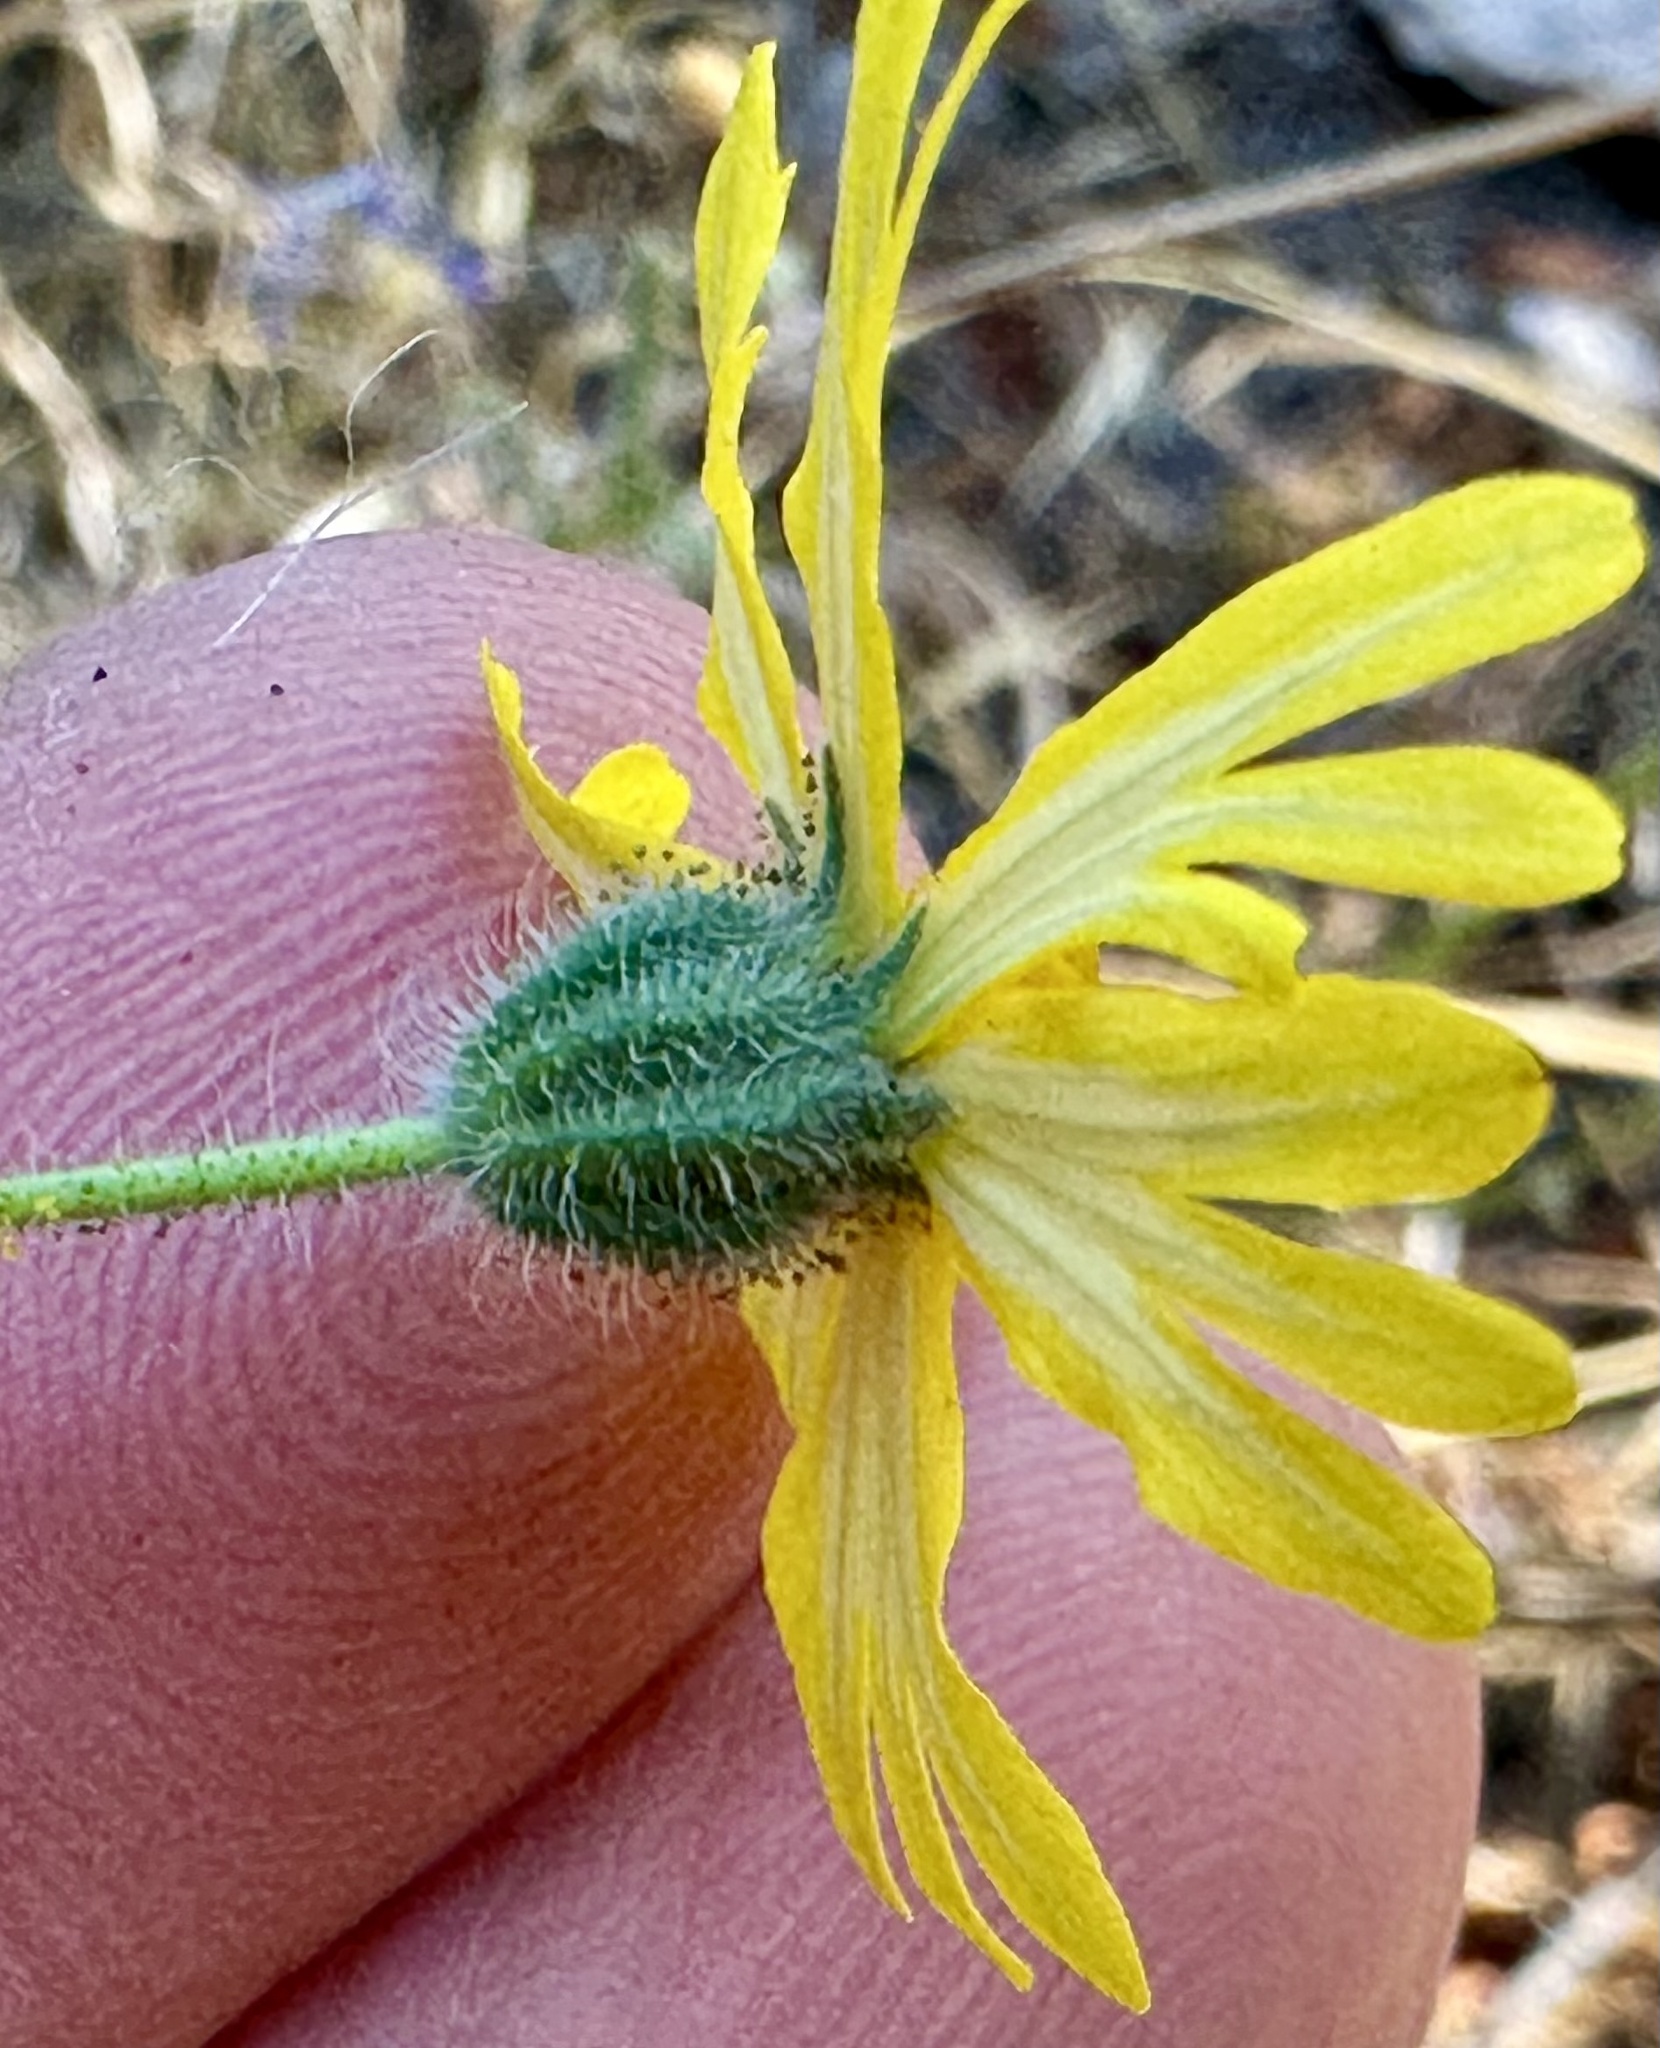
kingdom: Plantae
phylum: Tracheophyta
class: Magnoliopsida
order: Asterales
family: Asteraceae
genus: Madia
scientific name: Madia elegans
